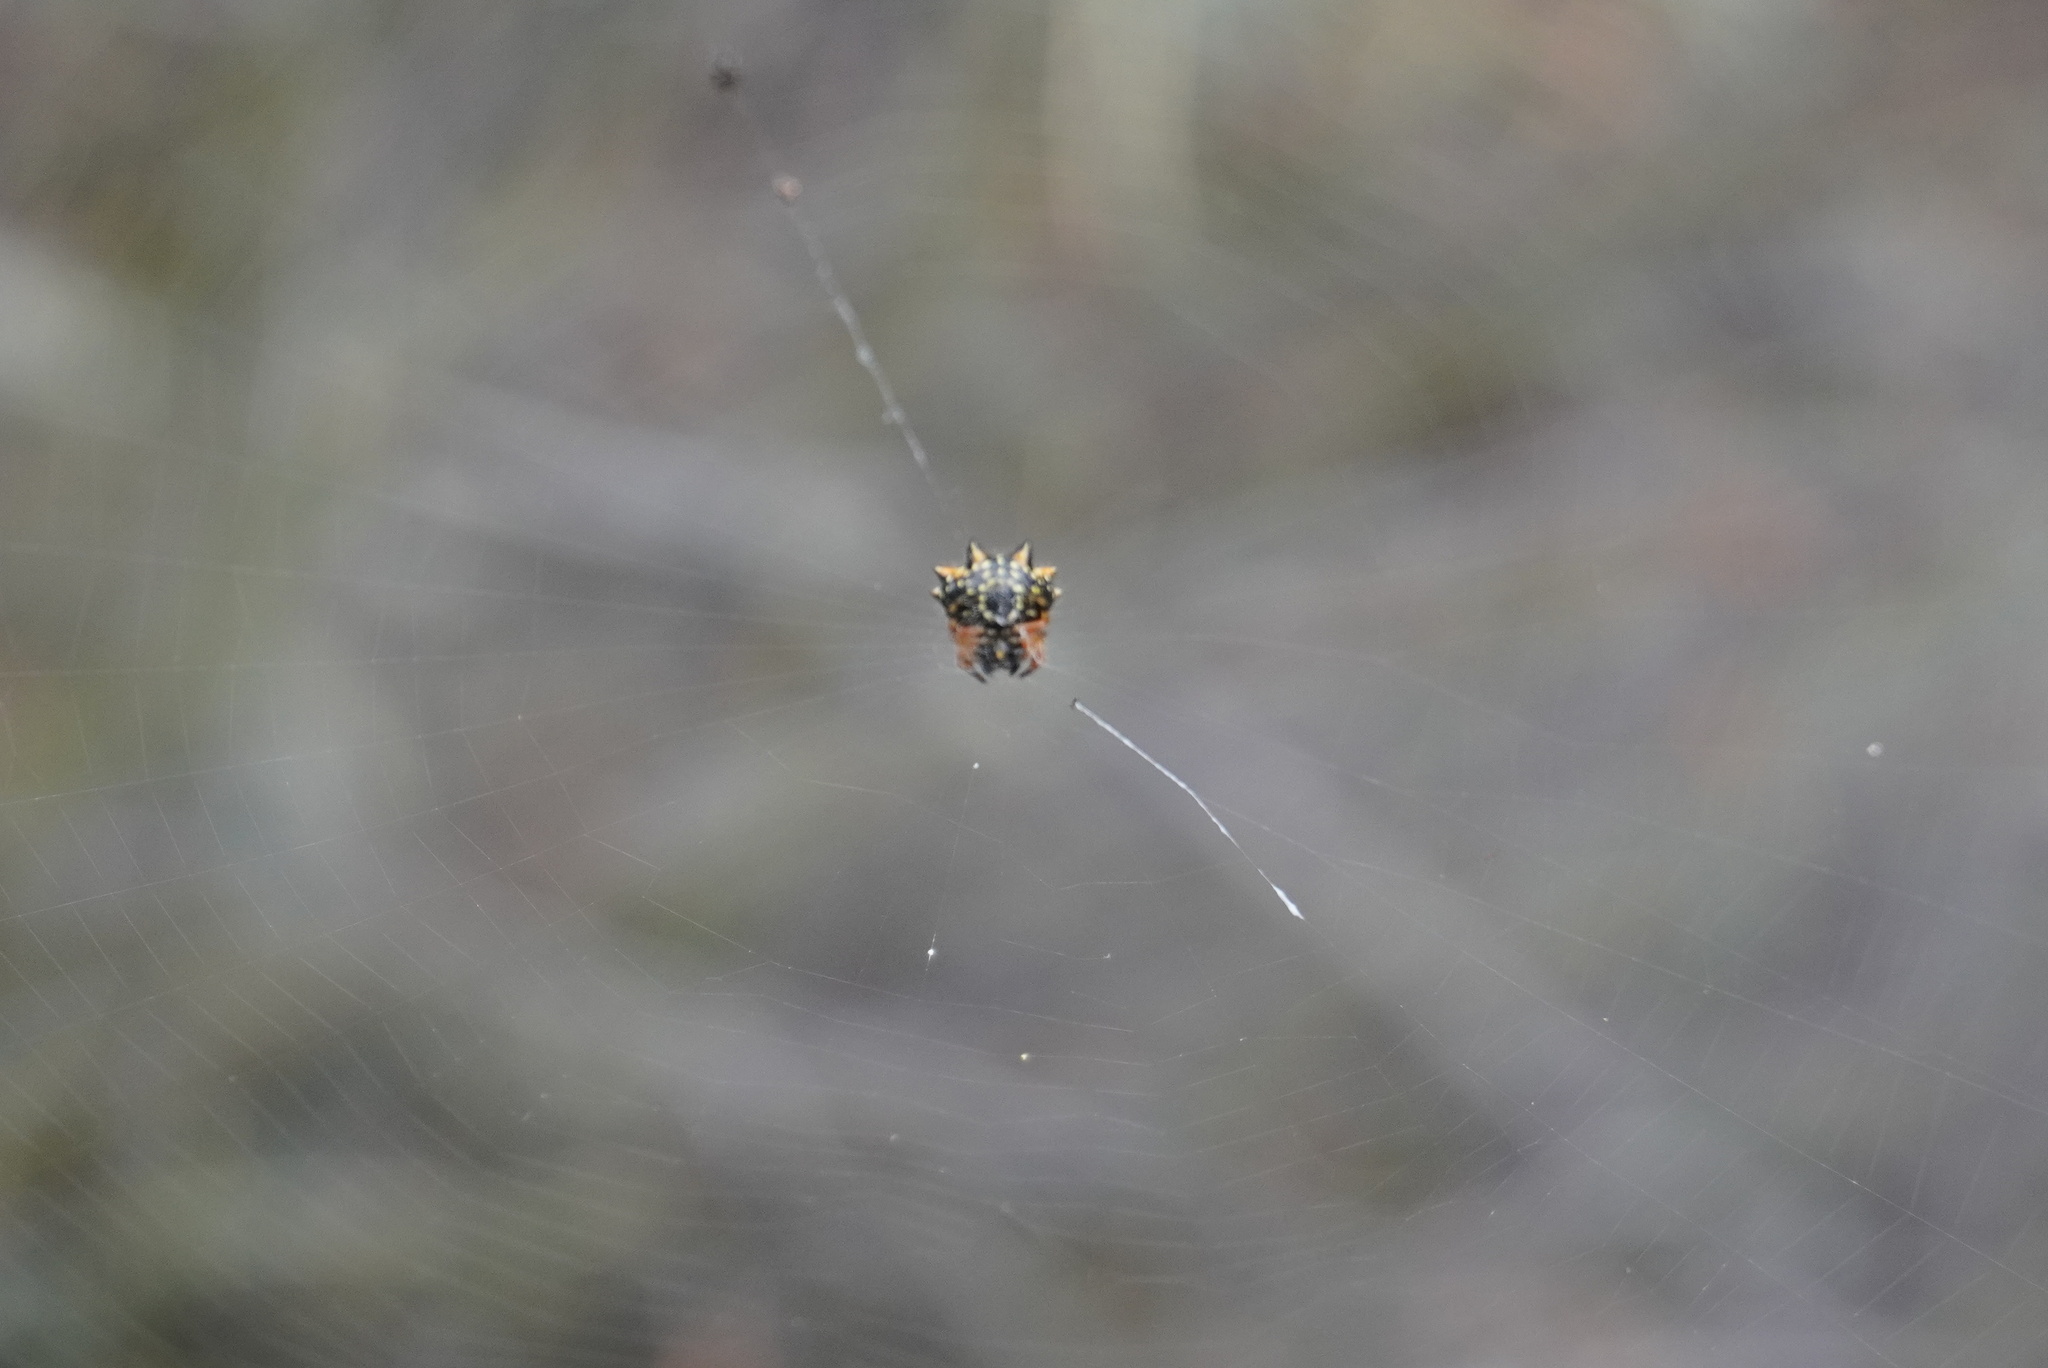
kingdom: Animalia
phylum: Arthropoda
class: Arachnida
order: Araneae
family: Araneidae
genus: Austracantha
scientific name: Austracantha minax
